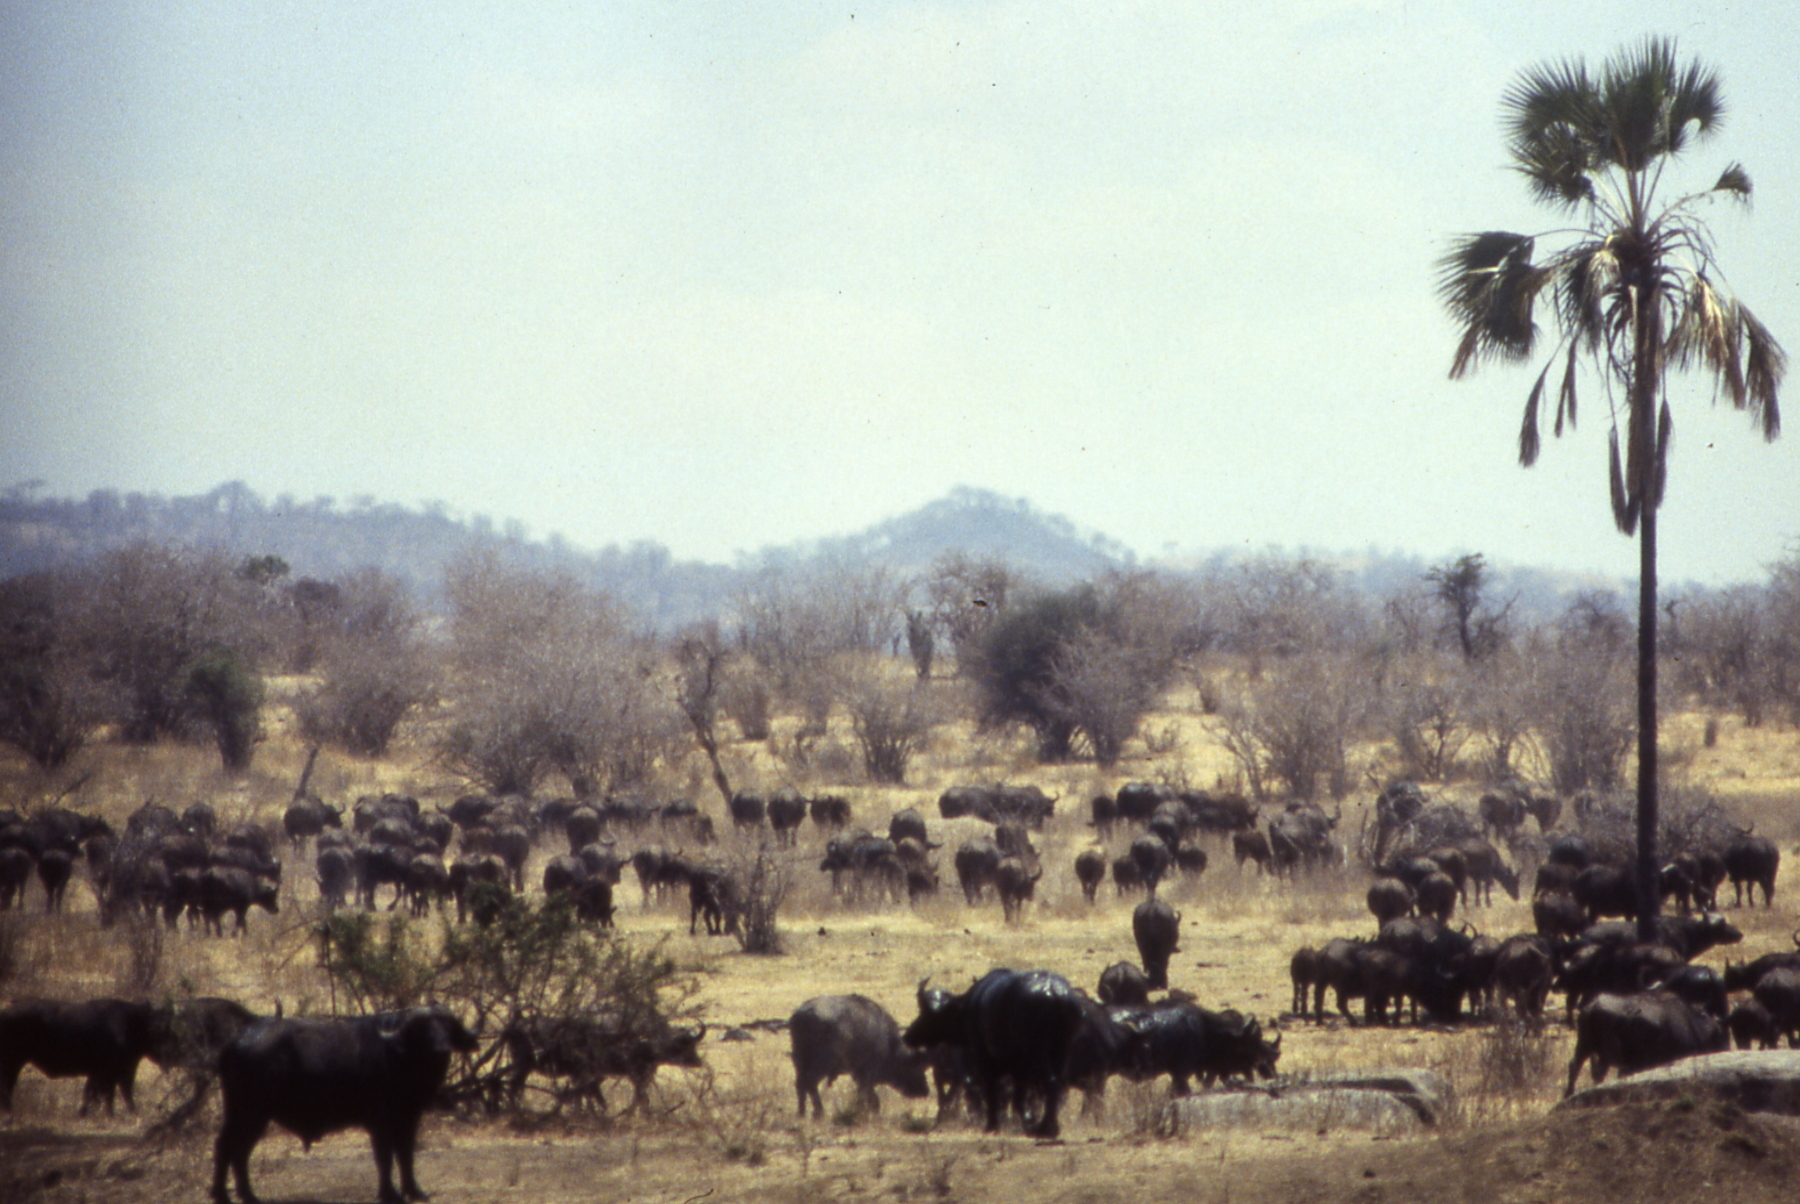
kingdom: Animalia
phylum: Chordata
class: Mammalia
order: Artiodactyla
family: Bovidae
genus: Syncerus
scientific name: Syncerus caffer
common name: African buffalo
